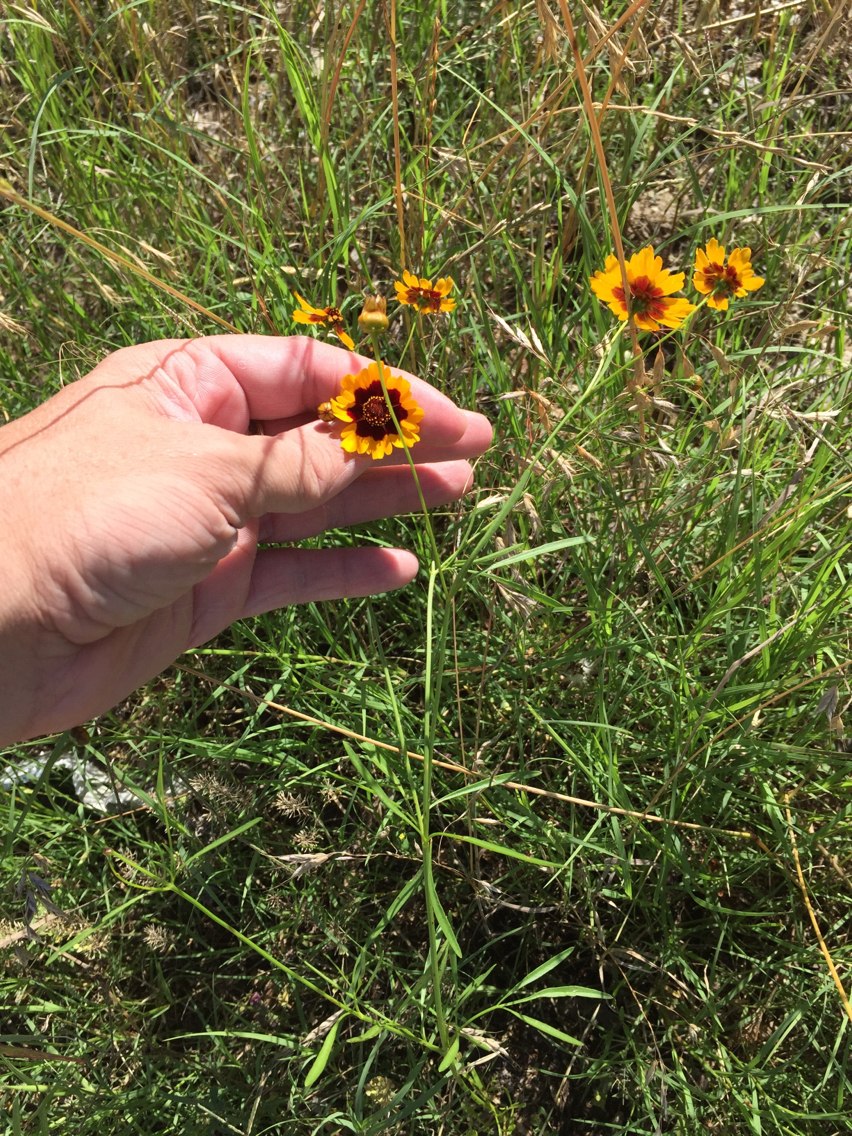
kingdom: Plantae
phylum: Tracheophyta
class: Magnoliopsida
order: Asterales
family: Asteraceae
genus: Coreopsis
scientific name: Coreopsis tinctoria
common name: Garden tickseed
